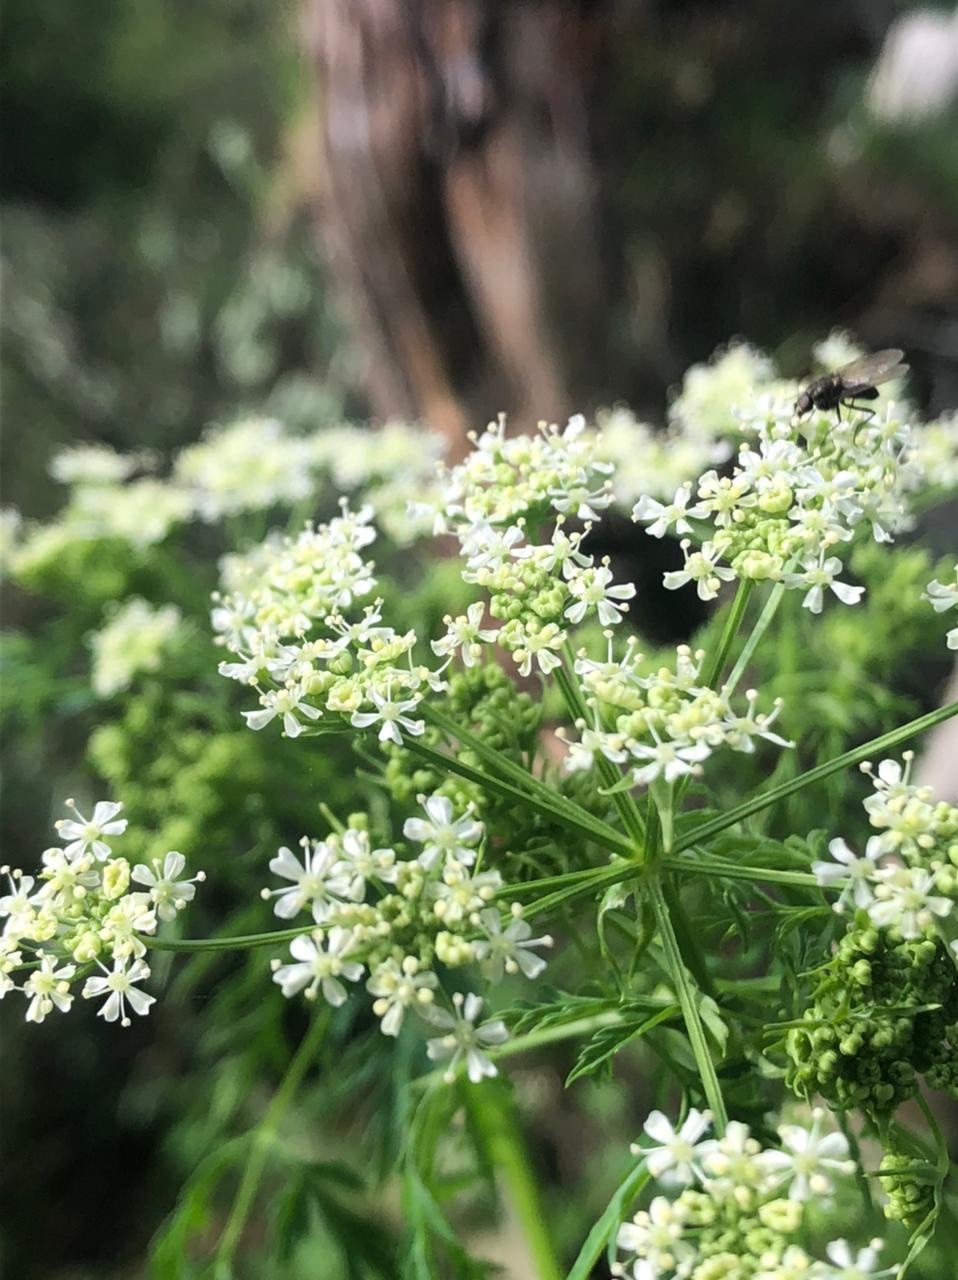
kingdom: Plantae
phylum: Tracheophyta
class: Magnoliopsida
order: Apiales
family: Apiaceae
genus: Conium
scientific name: Conium maculatum
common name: Hemlock
